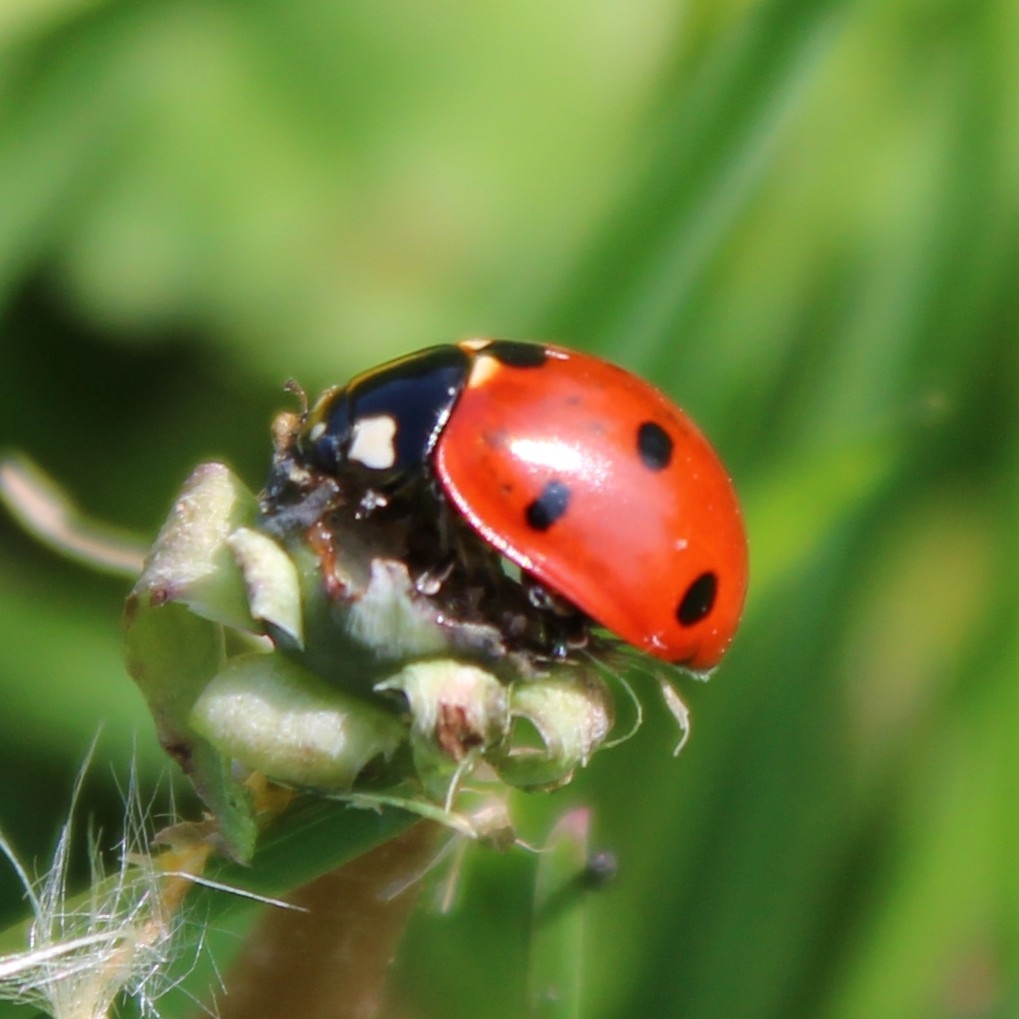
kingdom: Animalia
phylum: Arthropoda
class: Insecta
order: Coleoptera
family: Coccinellidae
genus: Coccinella
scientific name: Coccinella septempunctata
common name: Sevenspotted lady beetle
